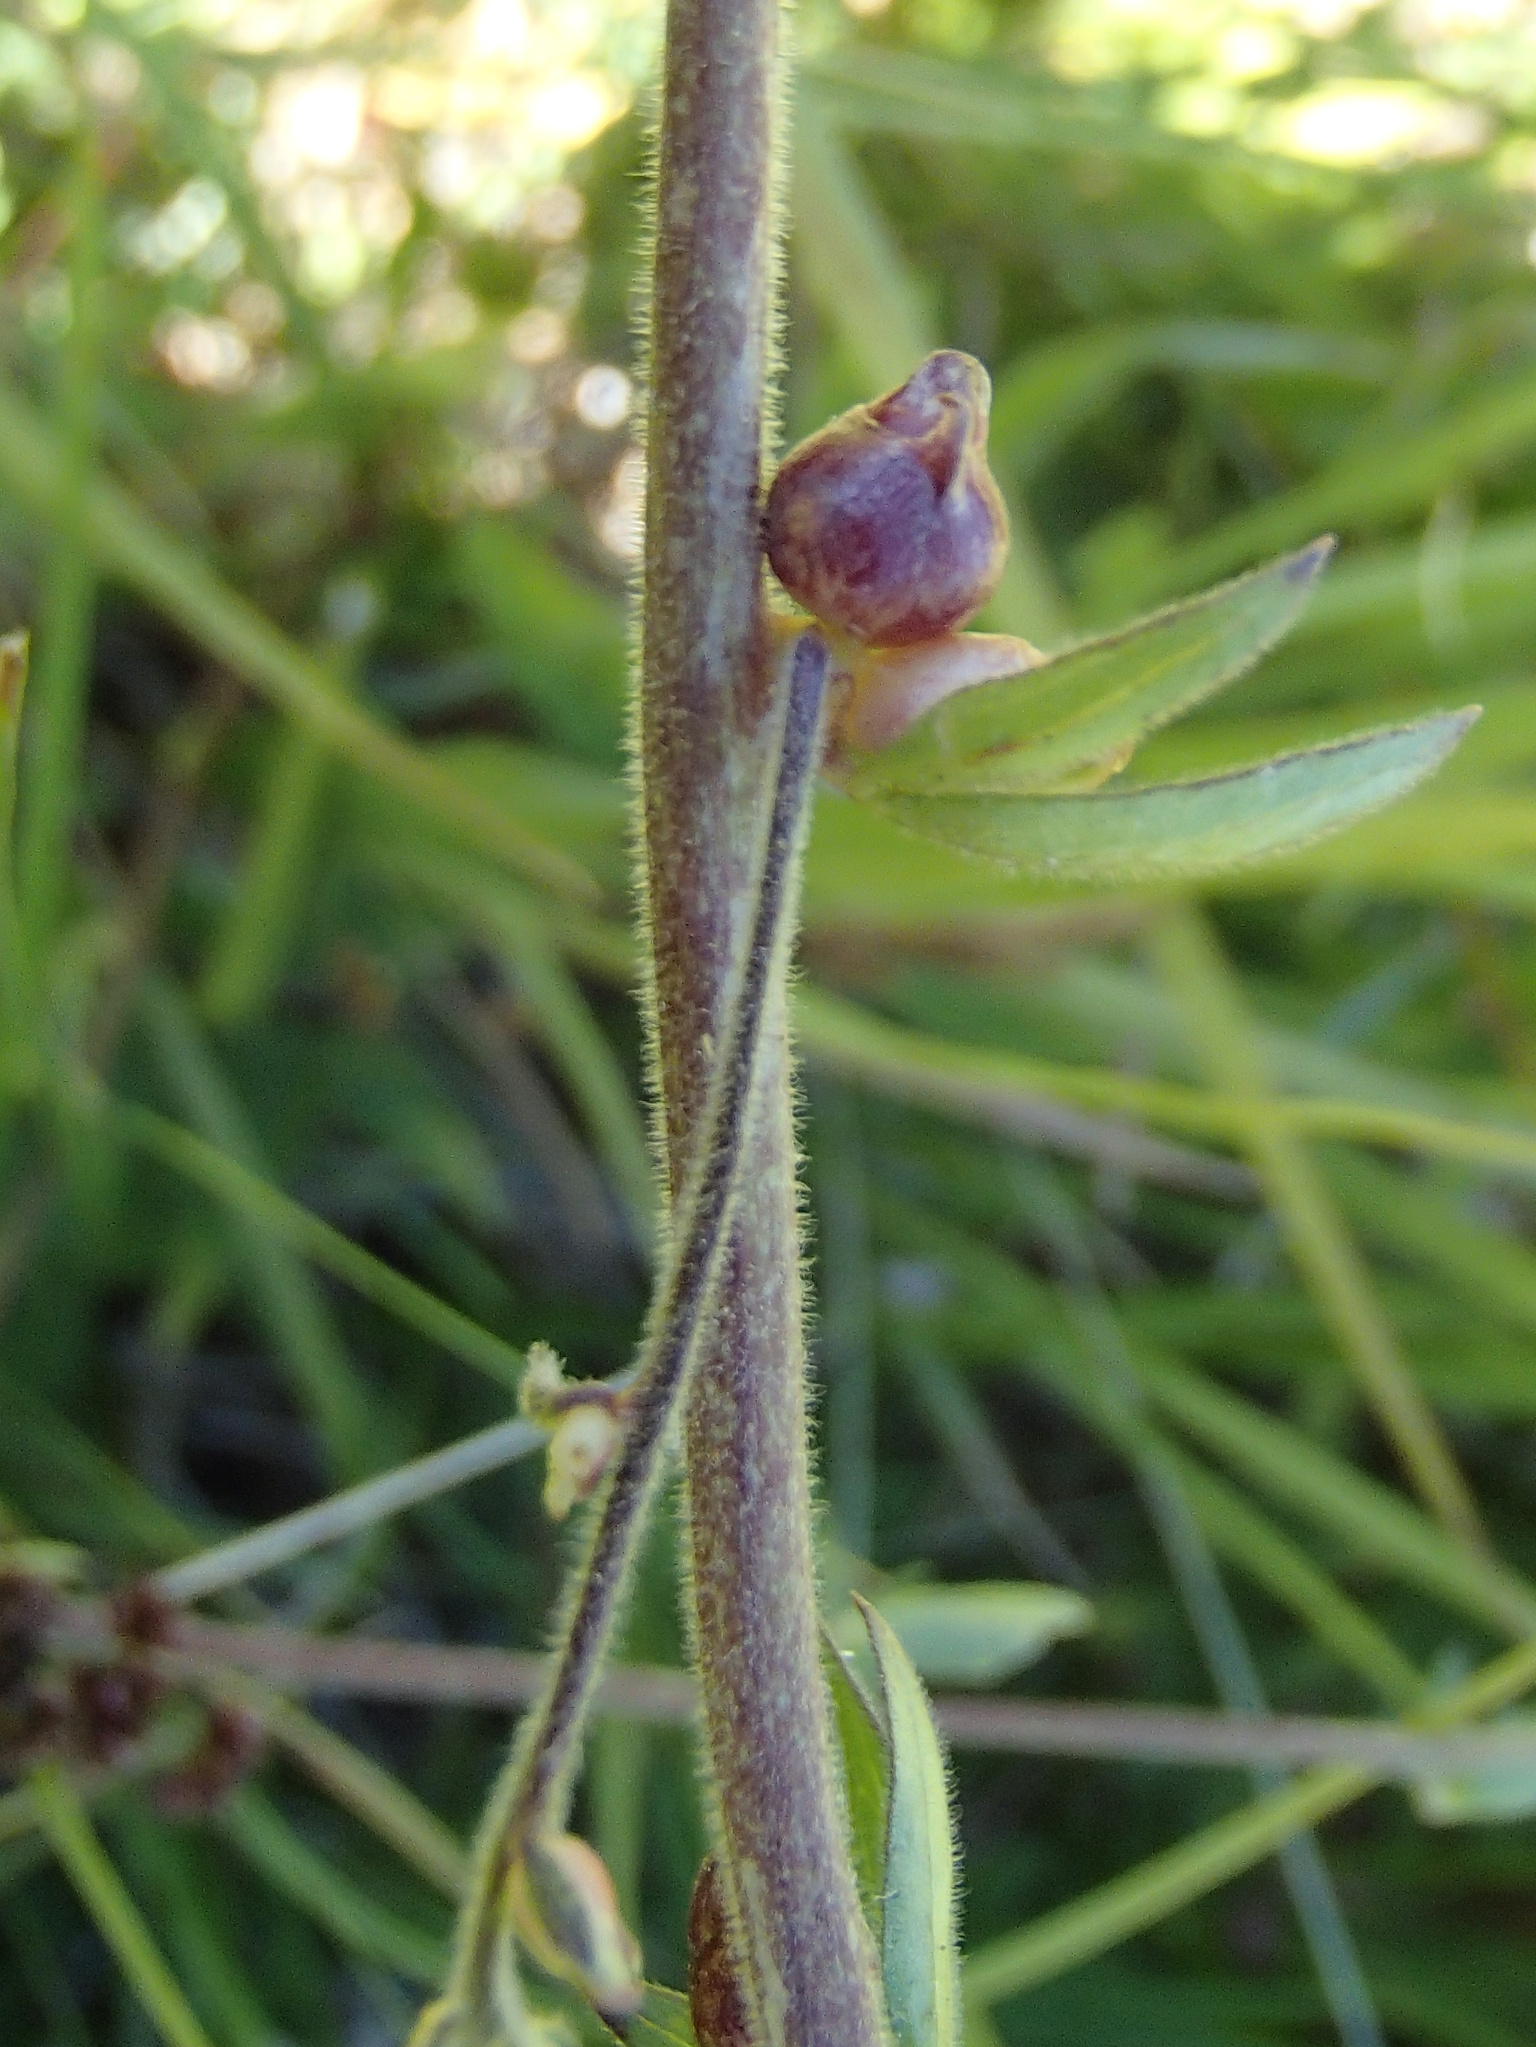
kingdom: Plantae
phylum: Tracheophyta
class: Magnoliopsida
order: Ranunculales
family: Ranunculaceae
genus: Aconitum
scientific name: Aconitum columbianum
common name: Columbia aconite
